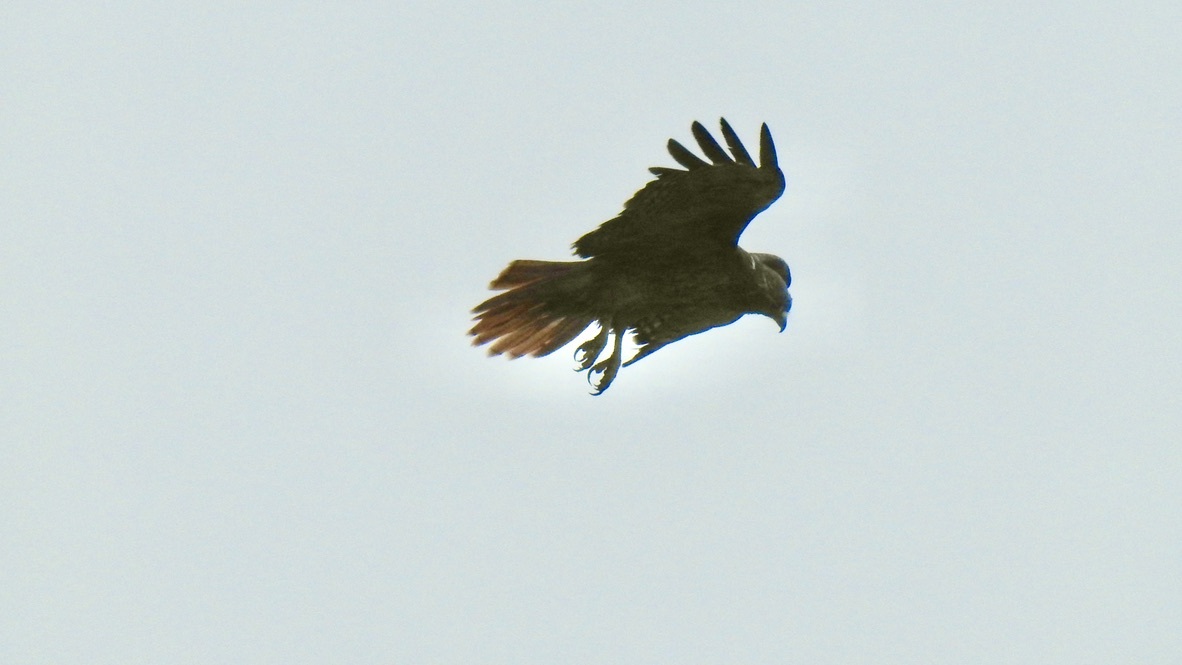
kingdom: Animalia
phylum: Chordata
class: Aves
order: Accipitriformes
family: Accipitridae
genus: Buteo
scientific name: Buteo jamaicensis
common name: Red-tailed hawk
